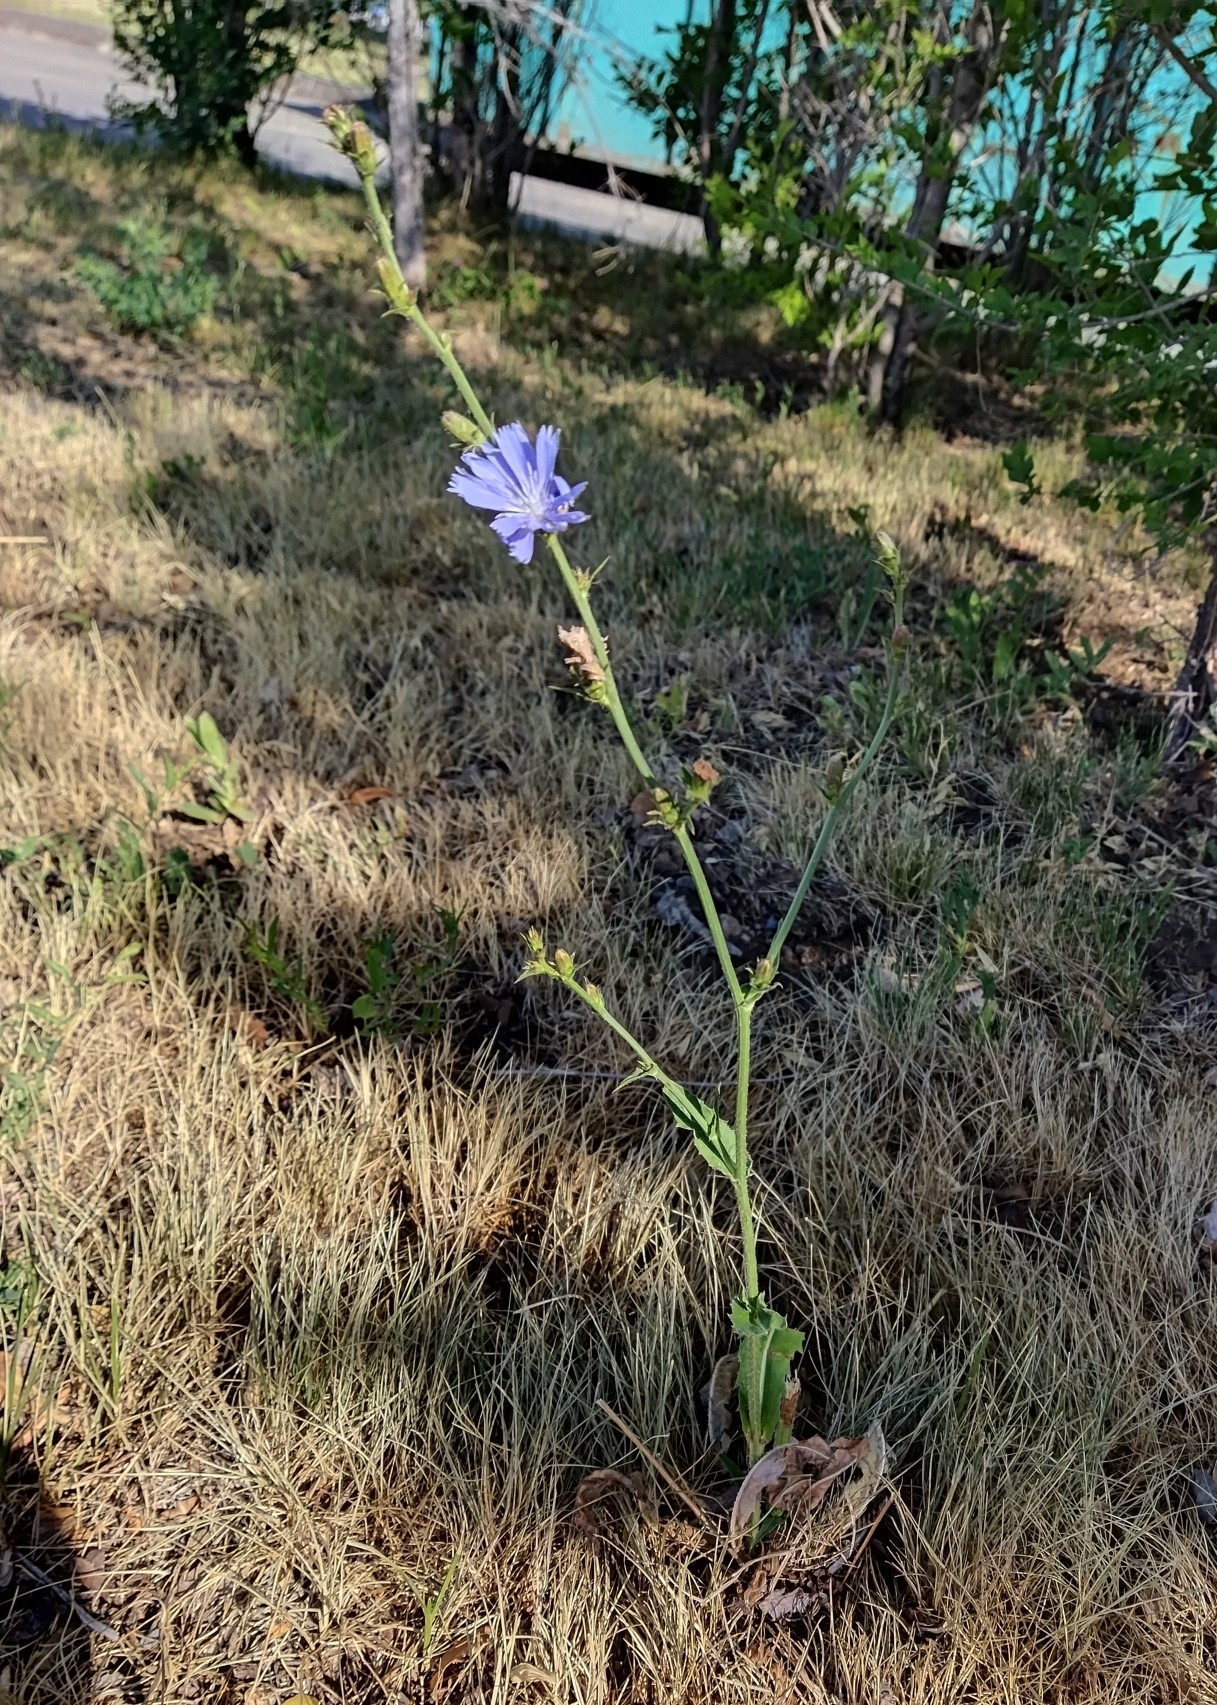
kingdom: Plantae
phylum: Tracheophyta
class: Magnoliopsida
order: Asterales
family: Asteraceae
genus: Cichorium
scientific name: Cichorium intybus
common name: Chicory
